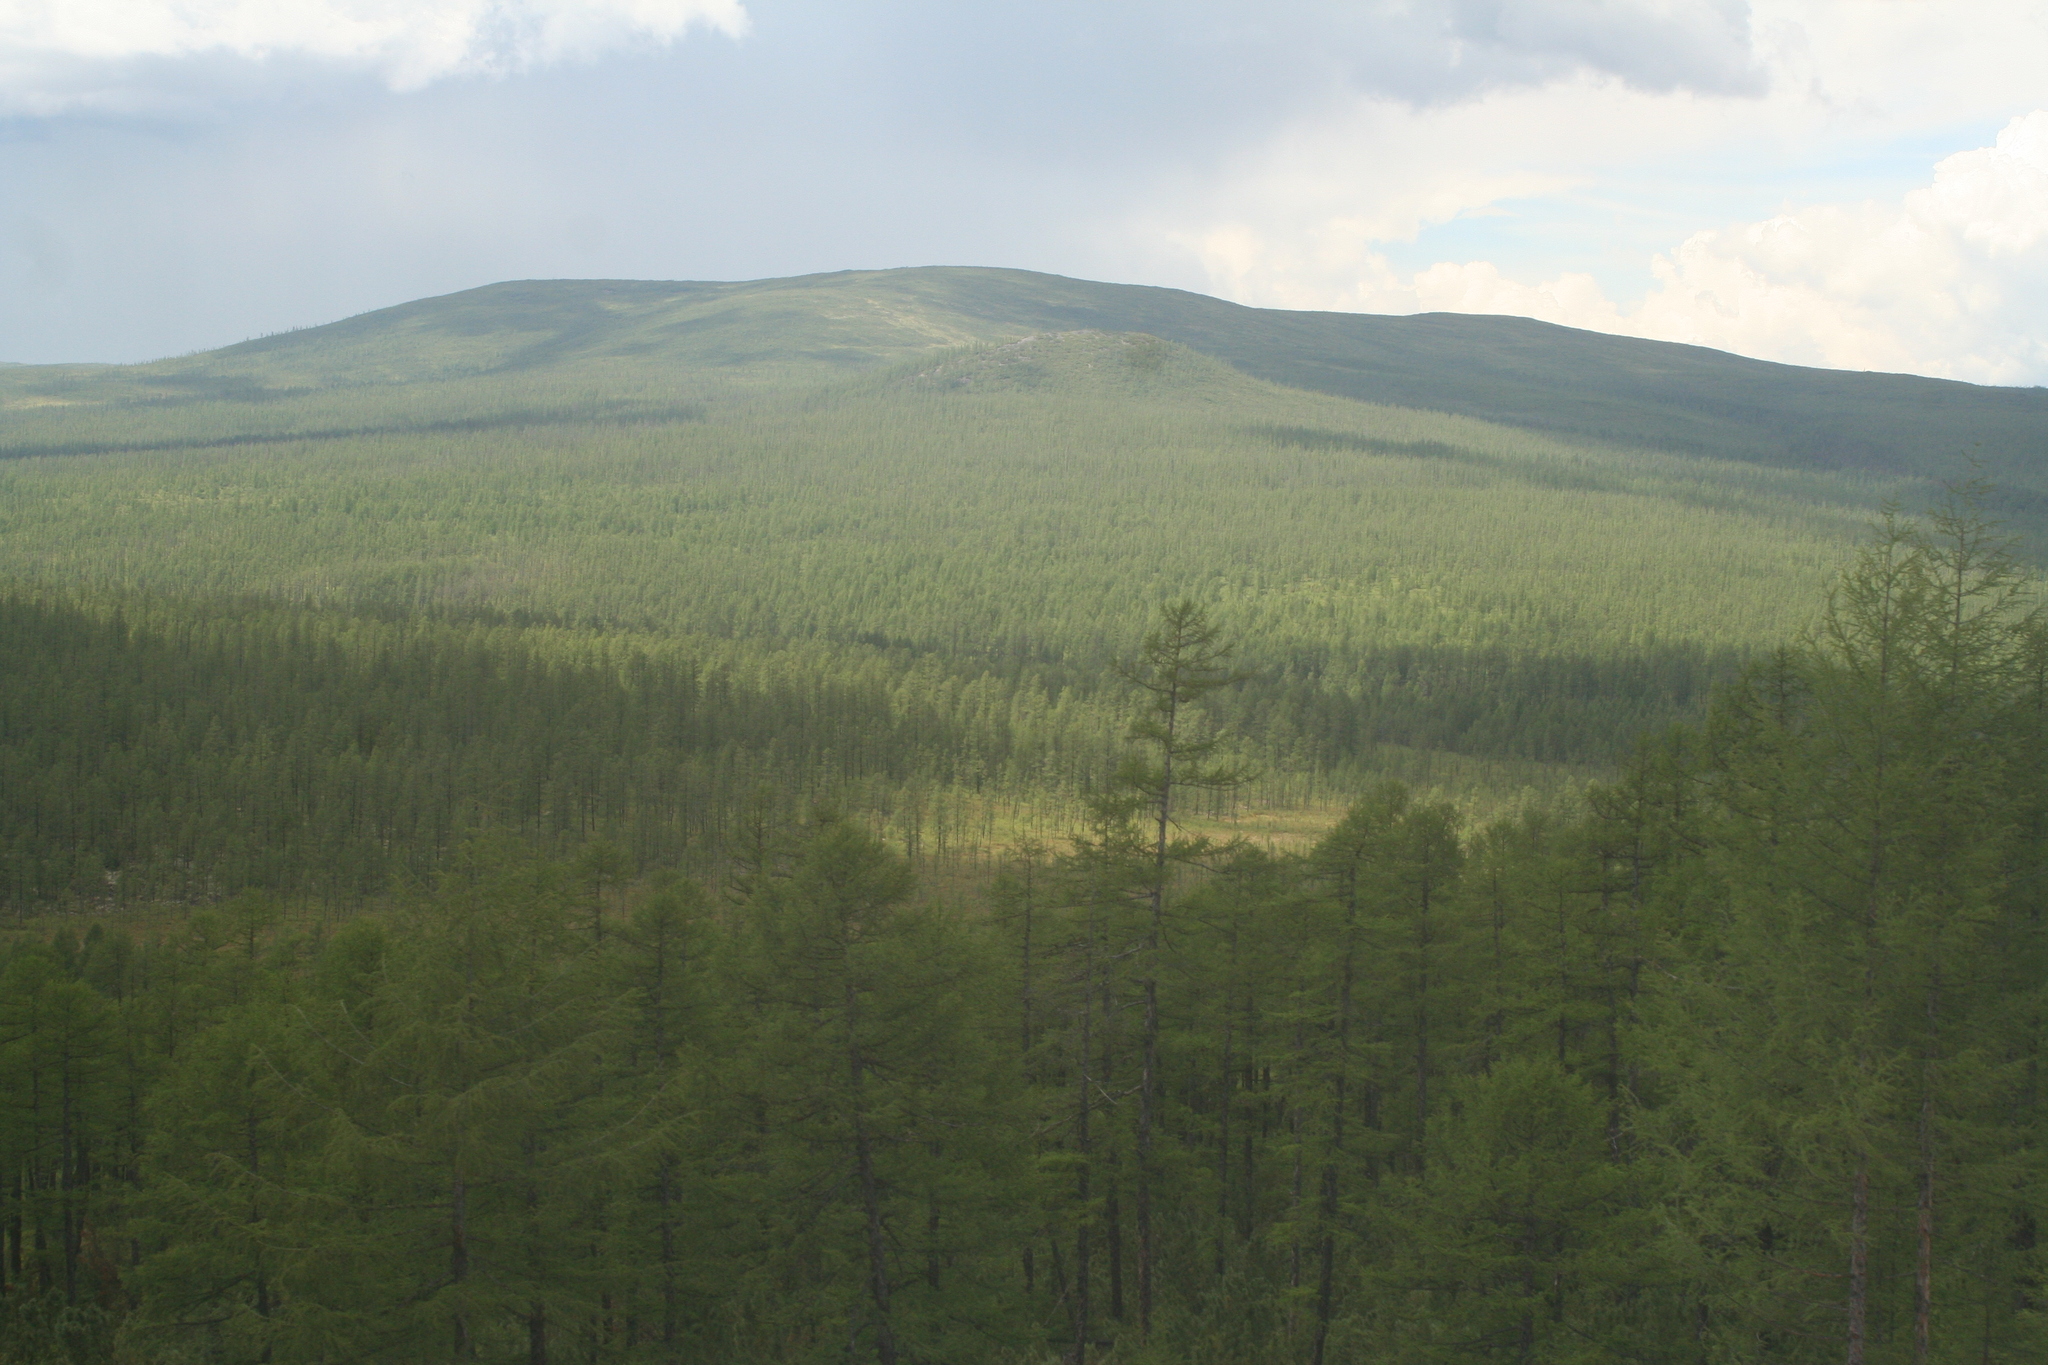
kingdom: Plantae
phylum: Tracheophyta
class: Pinopsida
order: Pinales
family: Pinaceae
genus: Larix
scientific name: Larix gmelinii
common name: Dahurian larch
